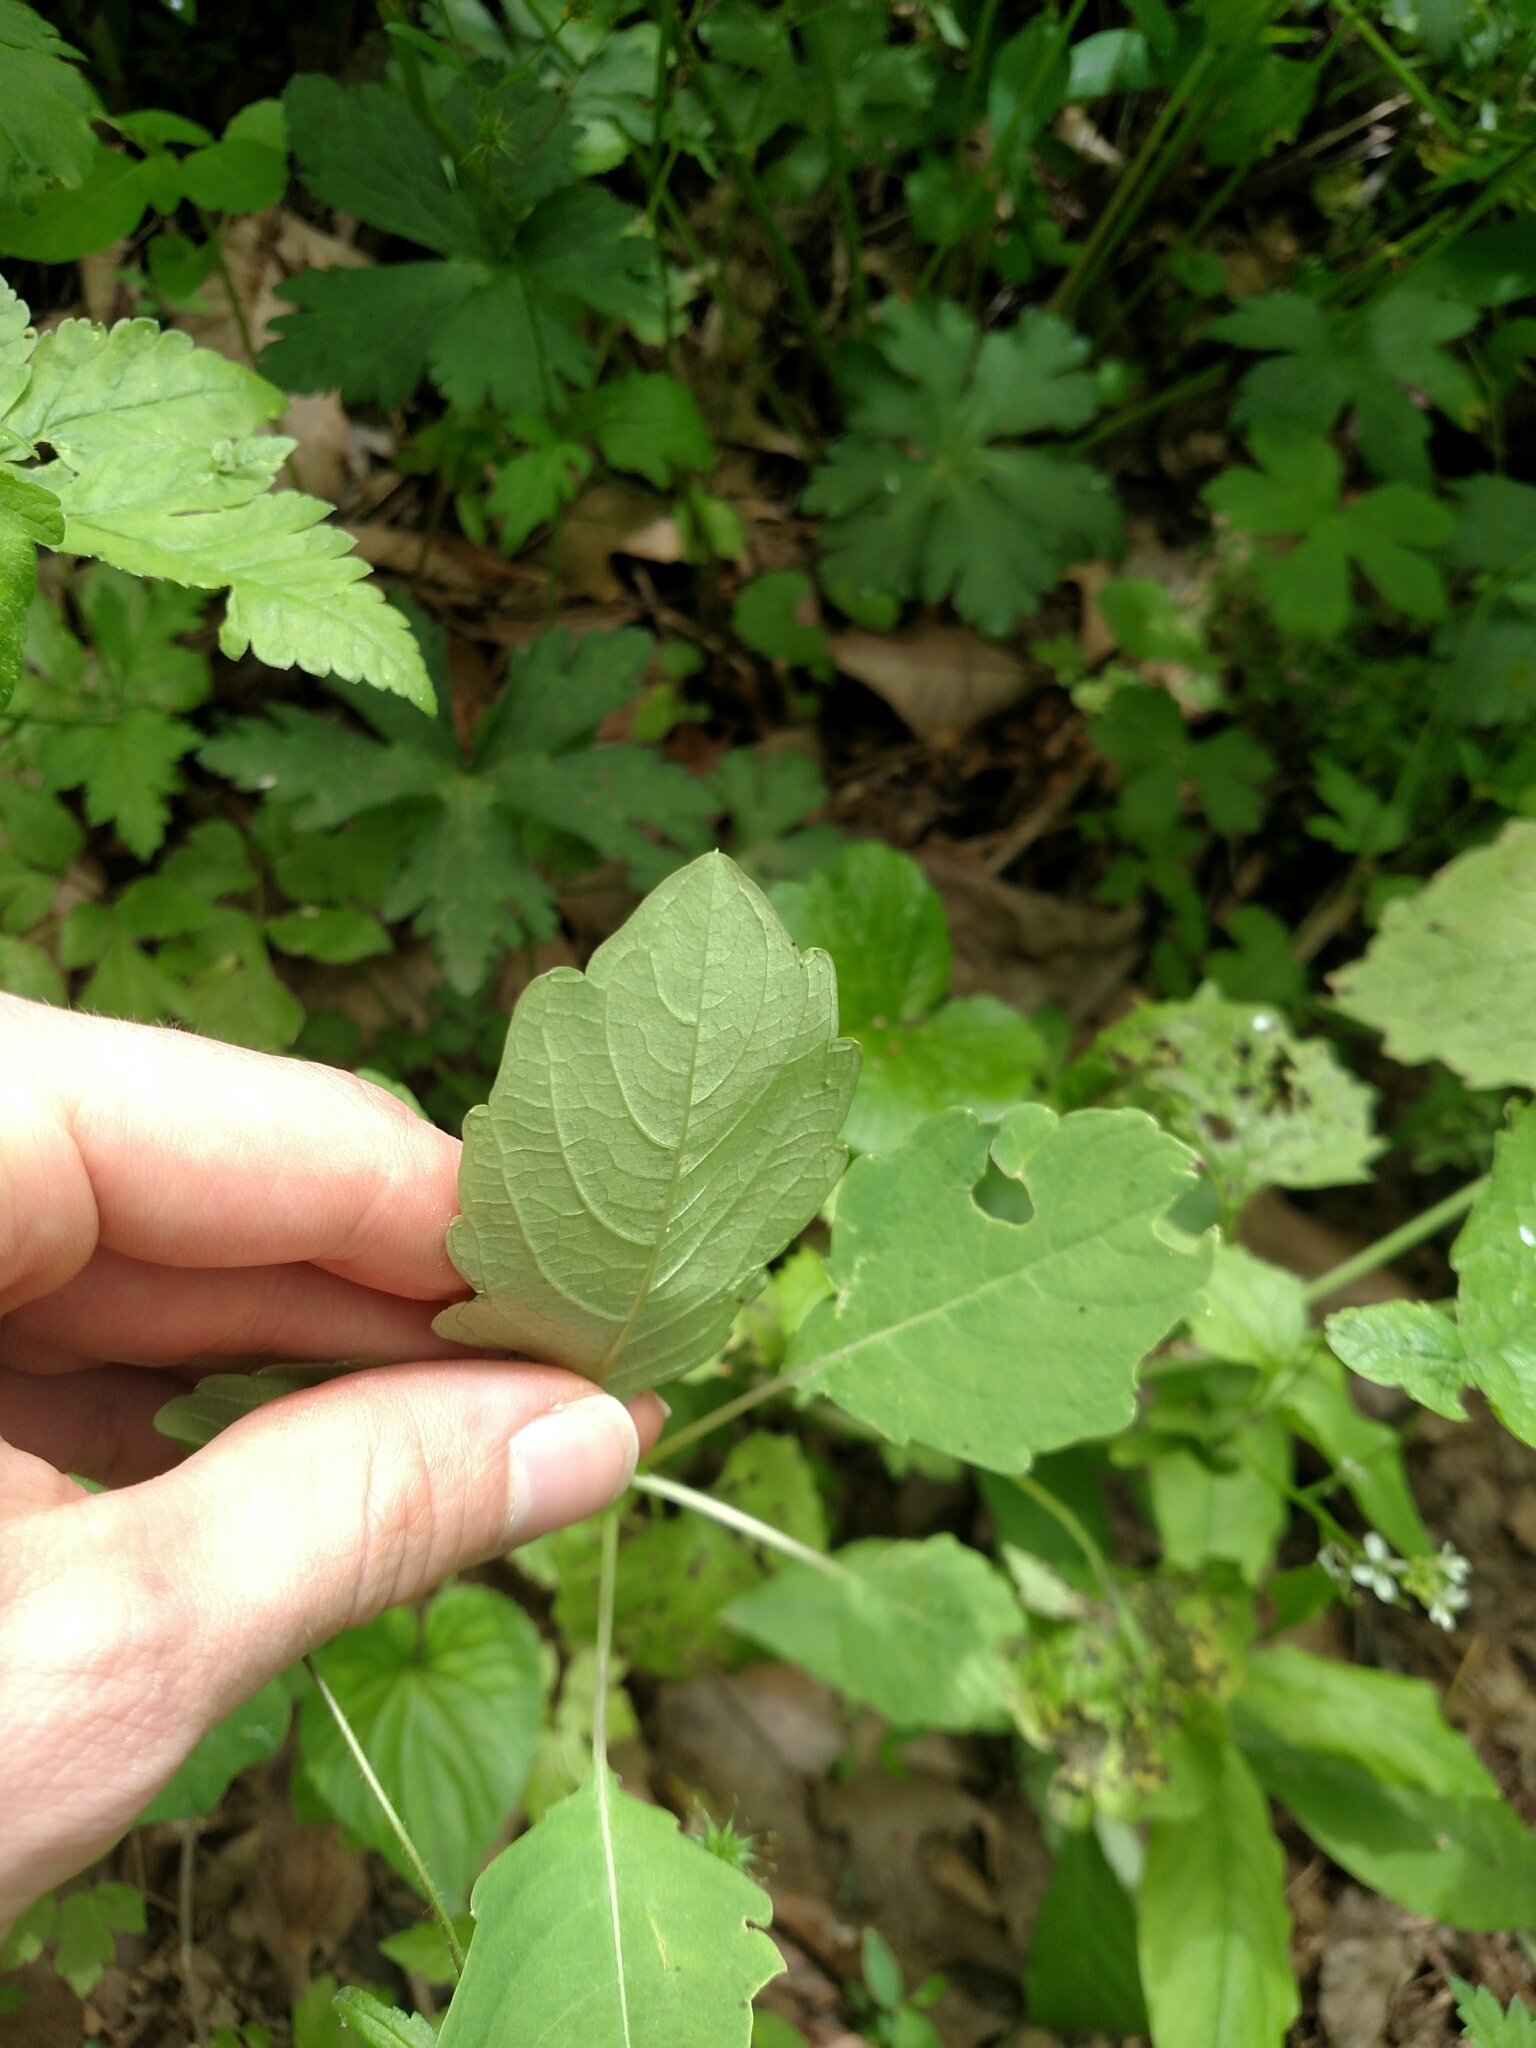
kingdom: Plantae
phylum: Tracheophyta
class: Magnoliopsida
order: Ericales
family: Balsaminaceae
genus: Impatiens
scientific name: Impatiens capensis
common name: Orange balsam
